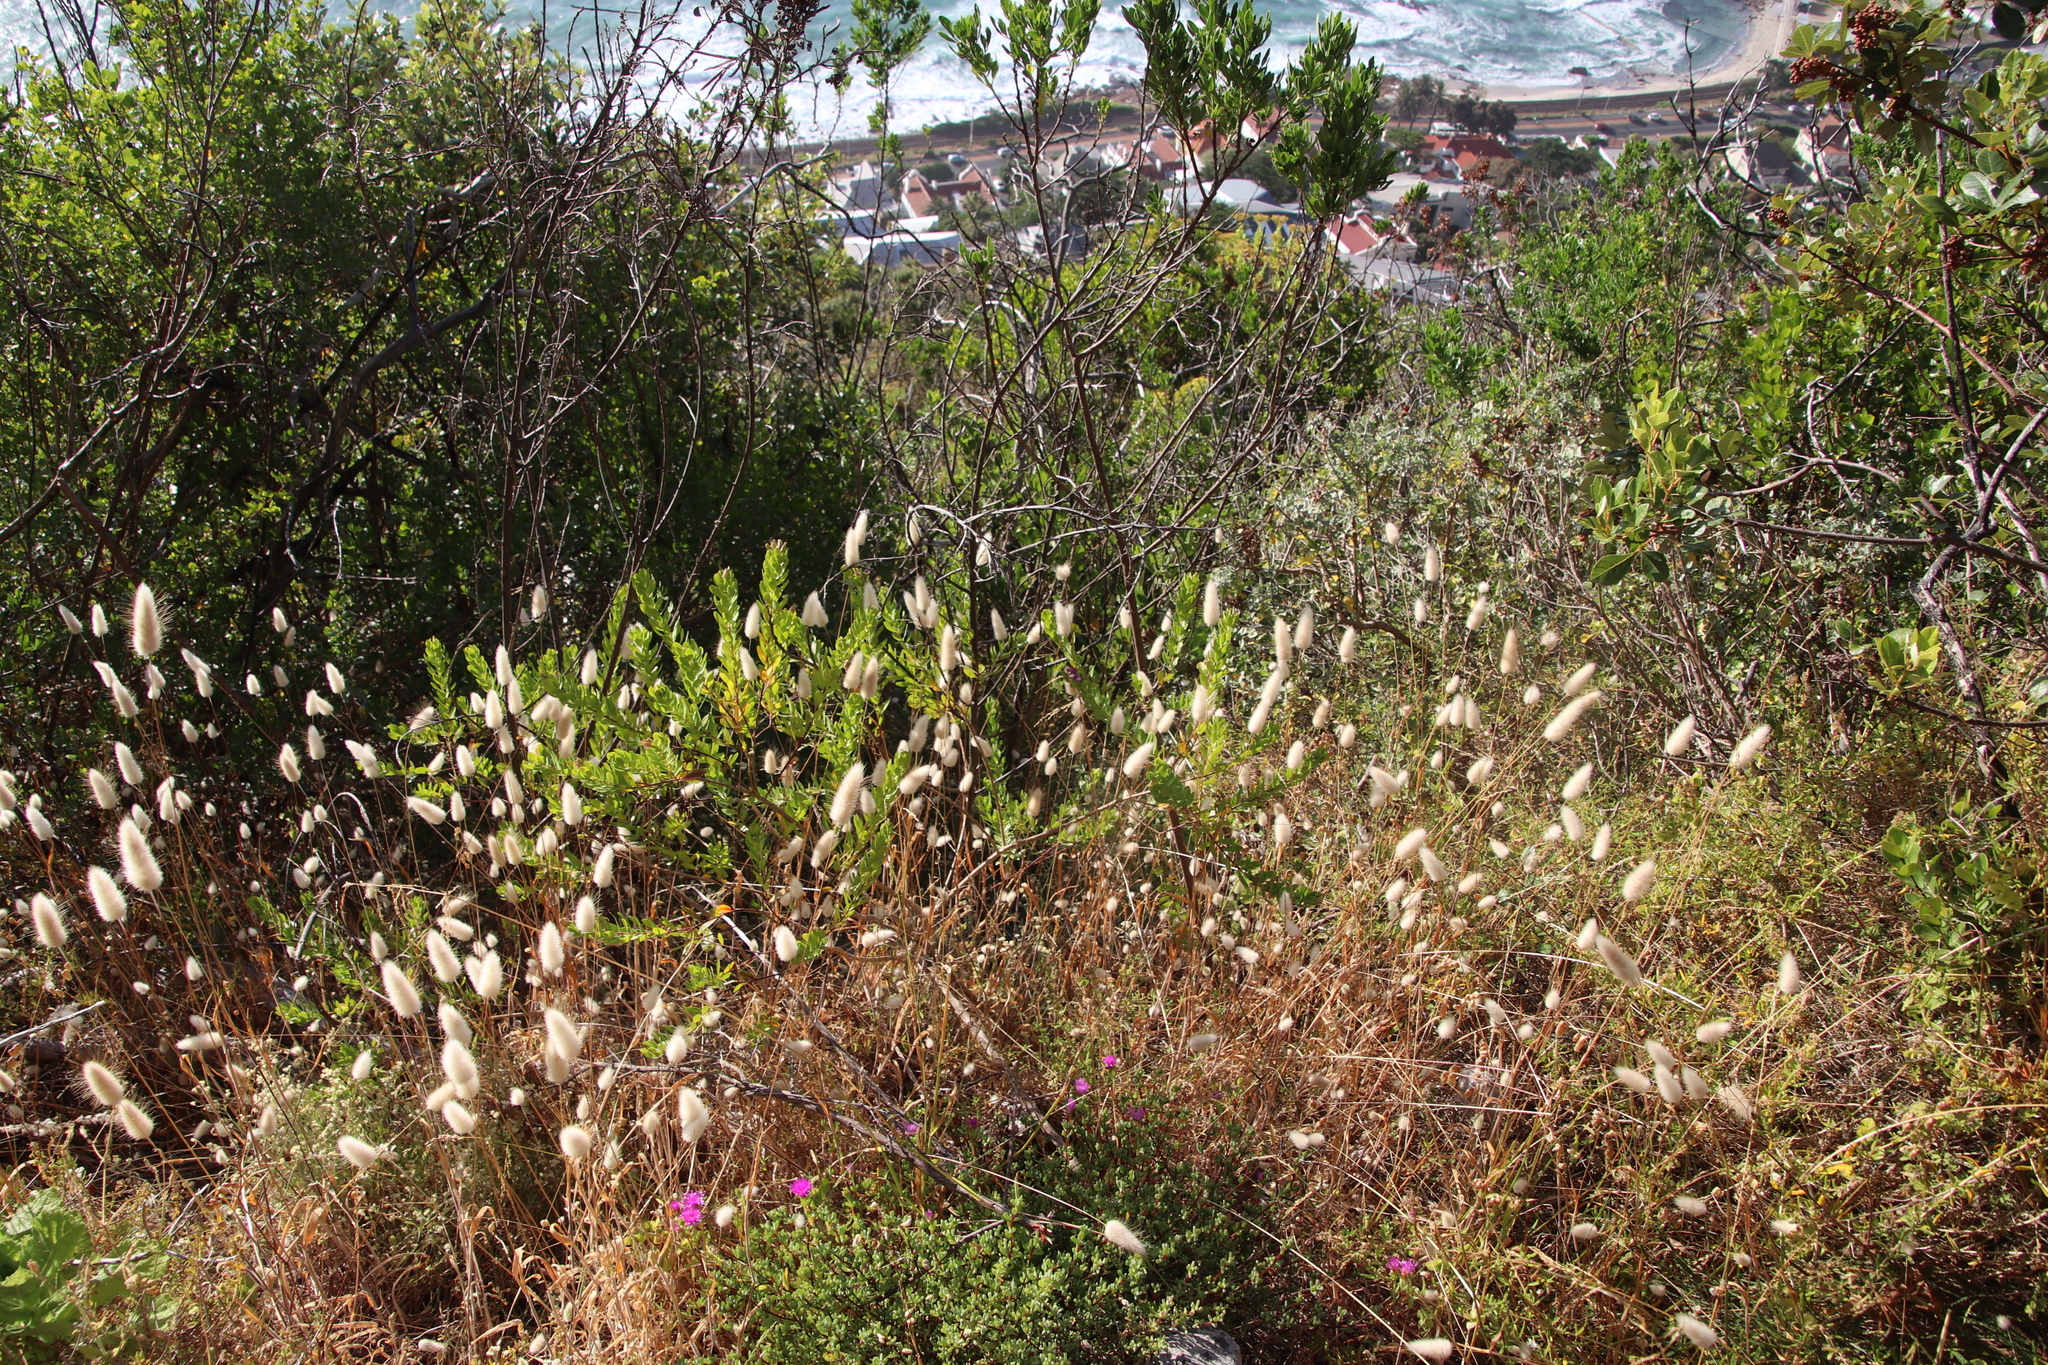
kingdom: Plantae
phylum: Tracheophyta
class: Liliopsida
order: Poales
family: Poaceae
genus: Lagurus
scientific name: Lagurus ovatus
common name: Hare's-tail
